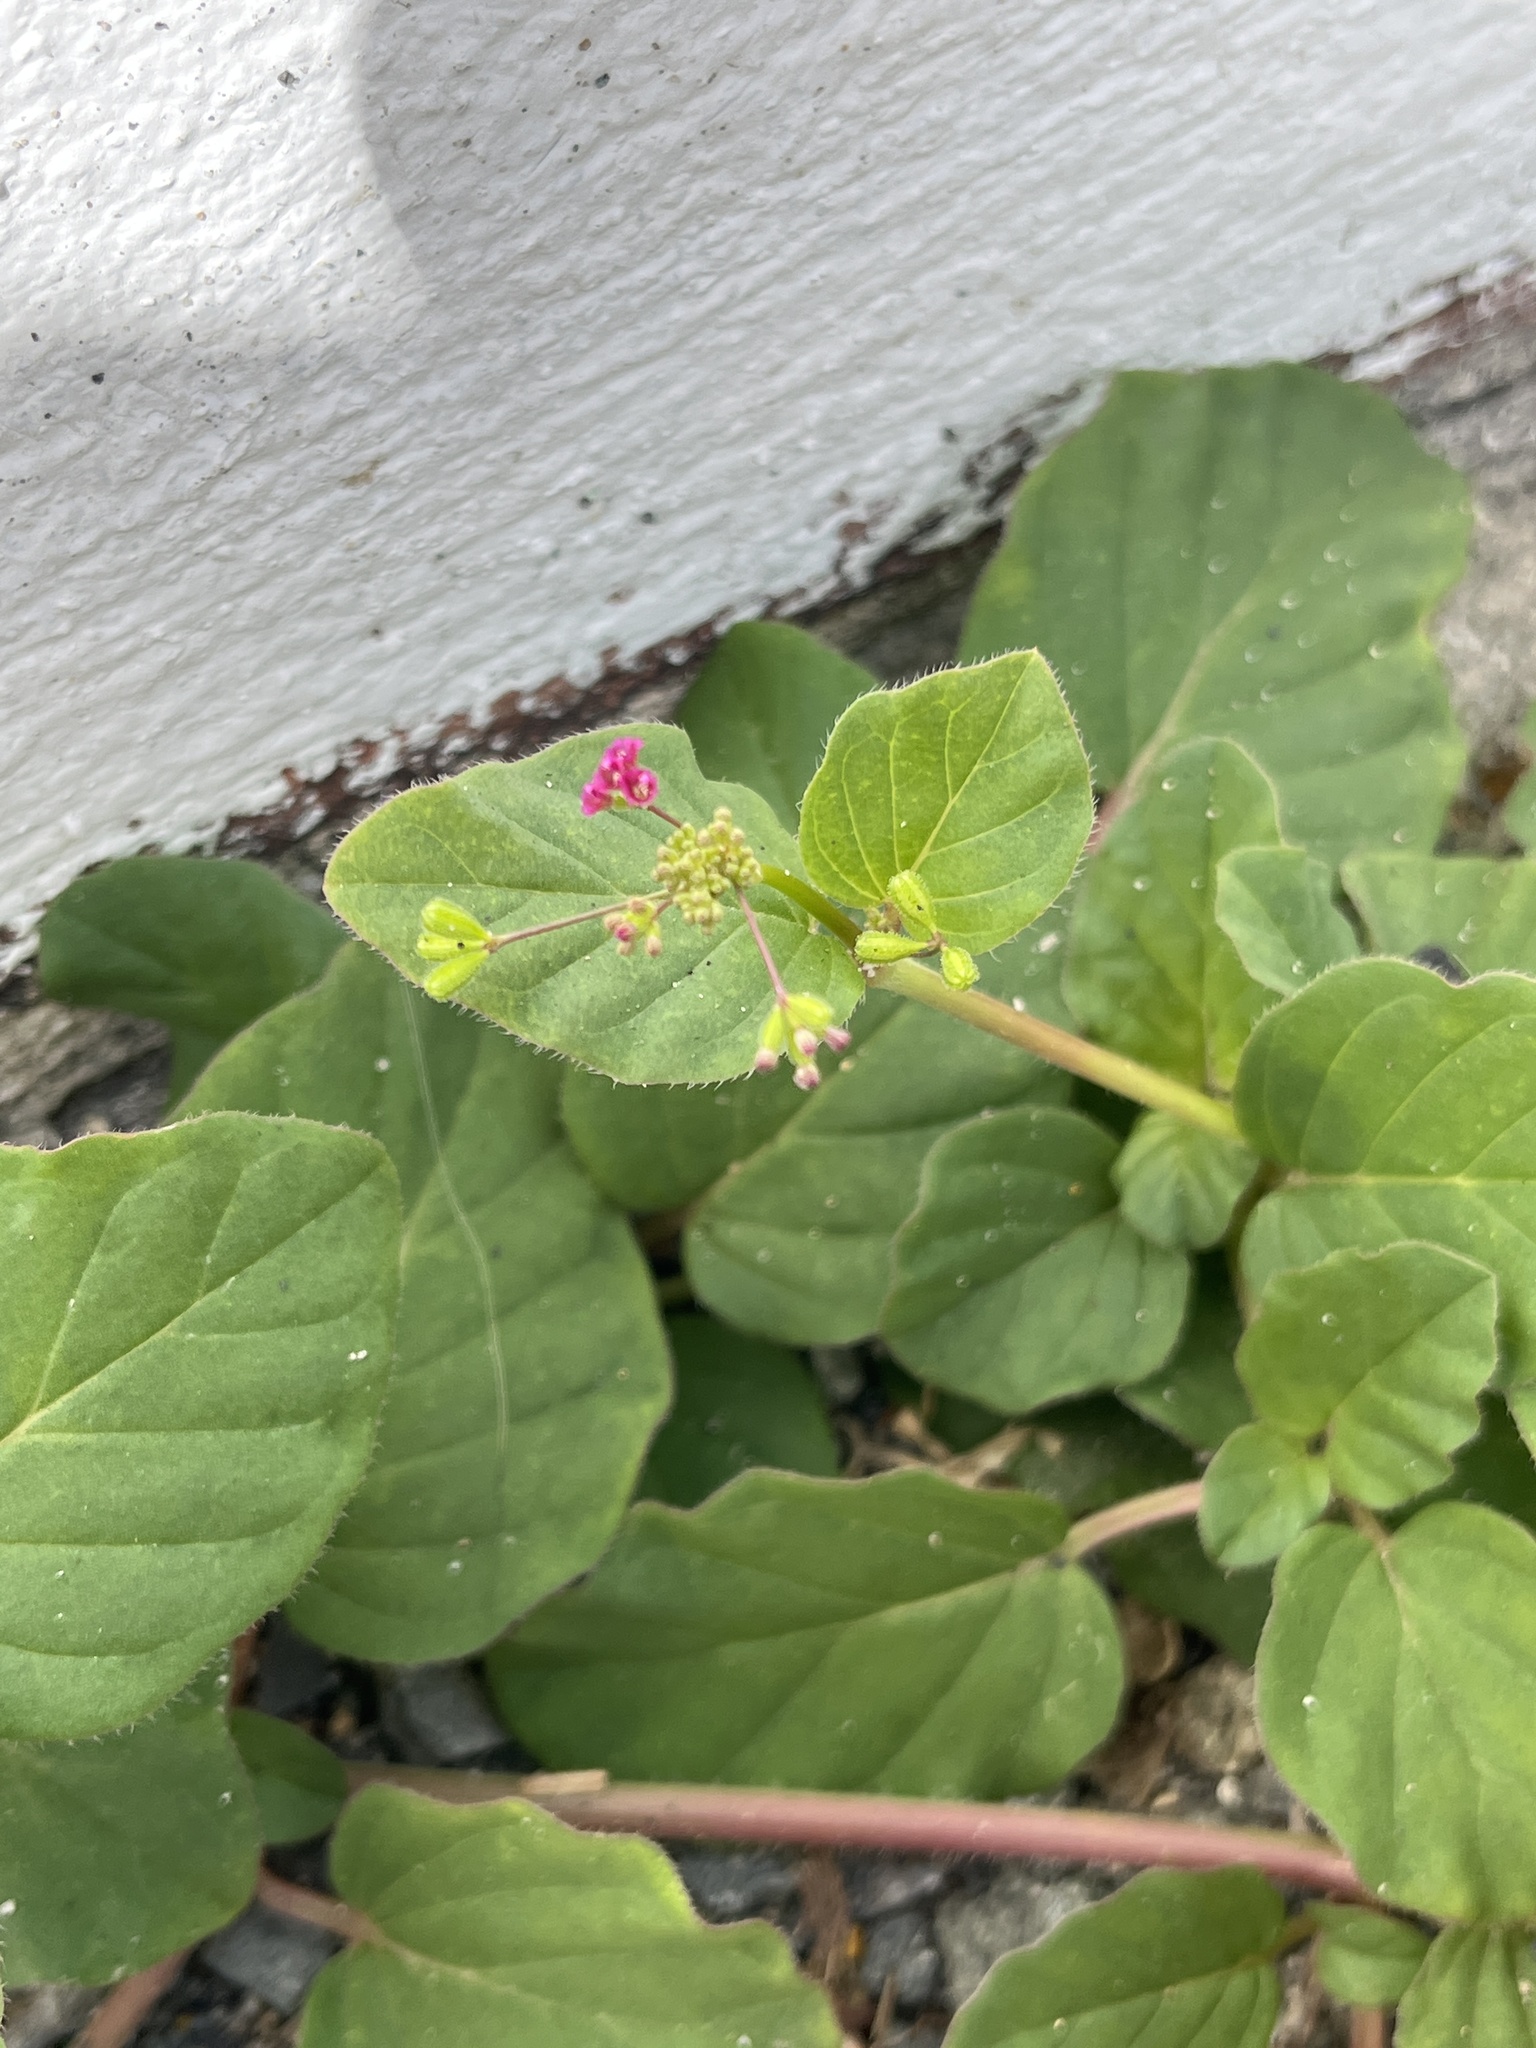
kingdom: Plantae
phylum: Tracheophyta
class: Magnoliopsida
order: Caryophyllales
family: Nyctaginaceae
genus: Boerhavia
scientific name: Boerhavia coccinea
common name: Scarlet spiderling
